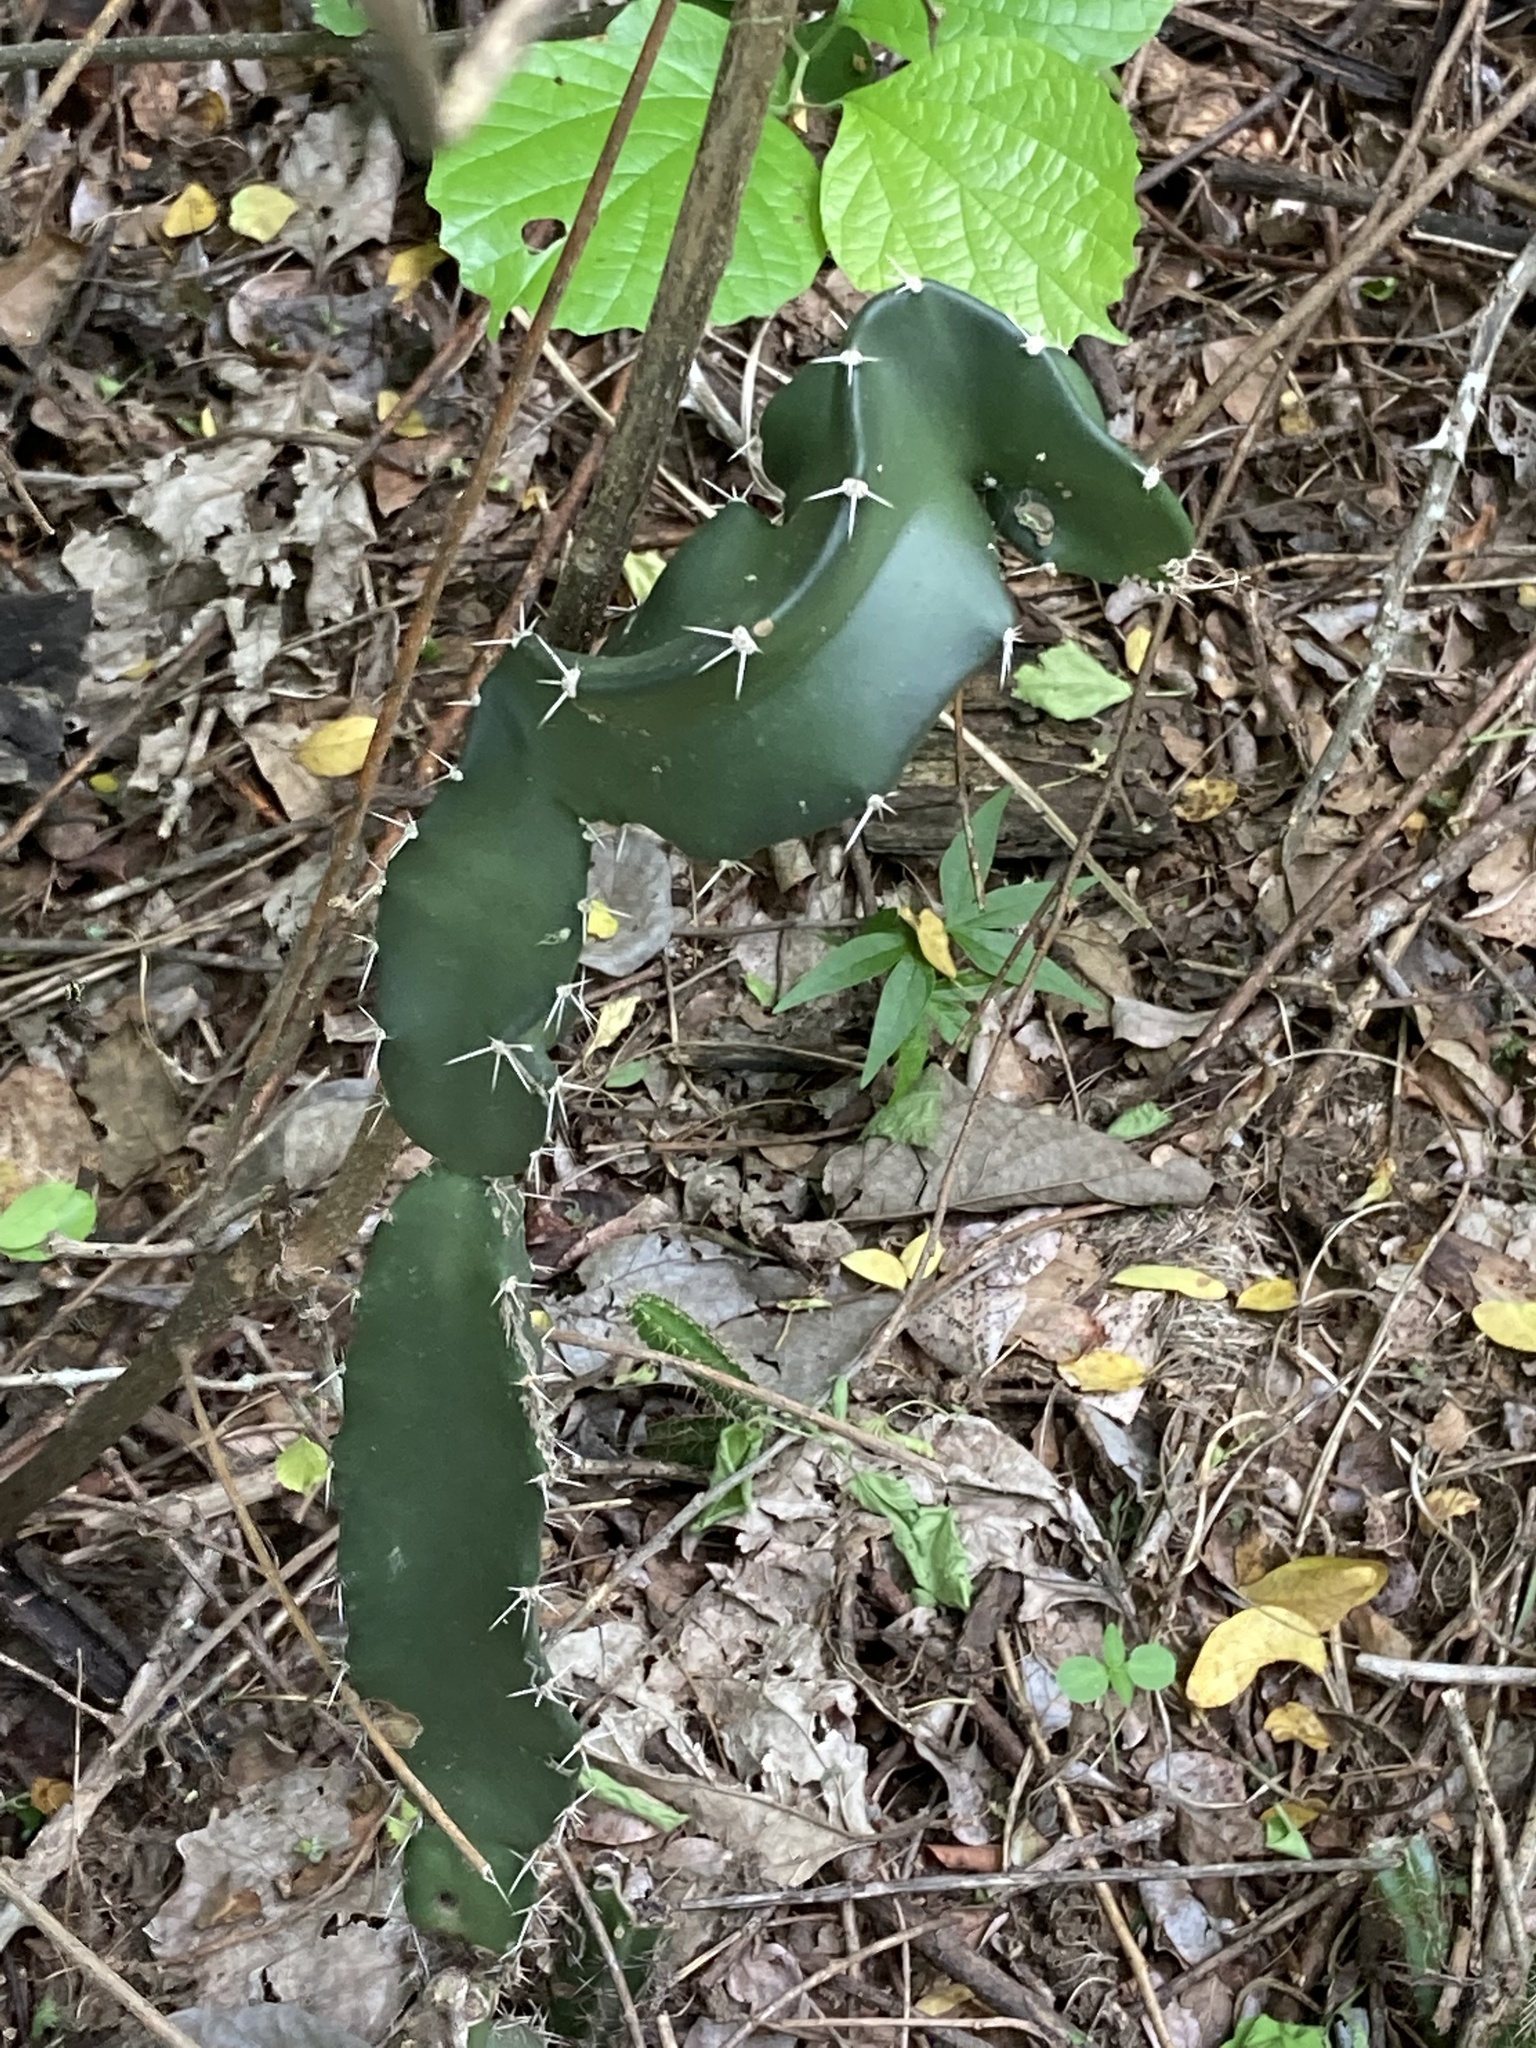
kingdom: Plantae
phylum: Tracheophyta
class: Magnoliopsida
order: Caryophyllales
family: Cactaceae
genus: Acanthocereus
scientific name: Acanthocereus tetragonus
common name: Triangle cactus
